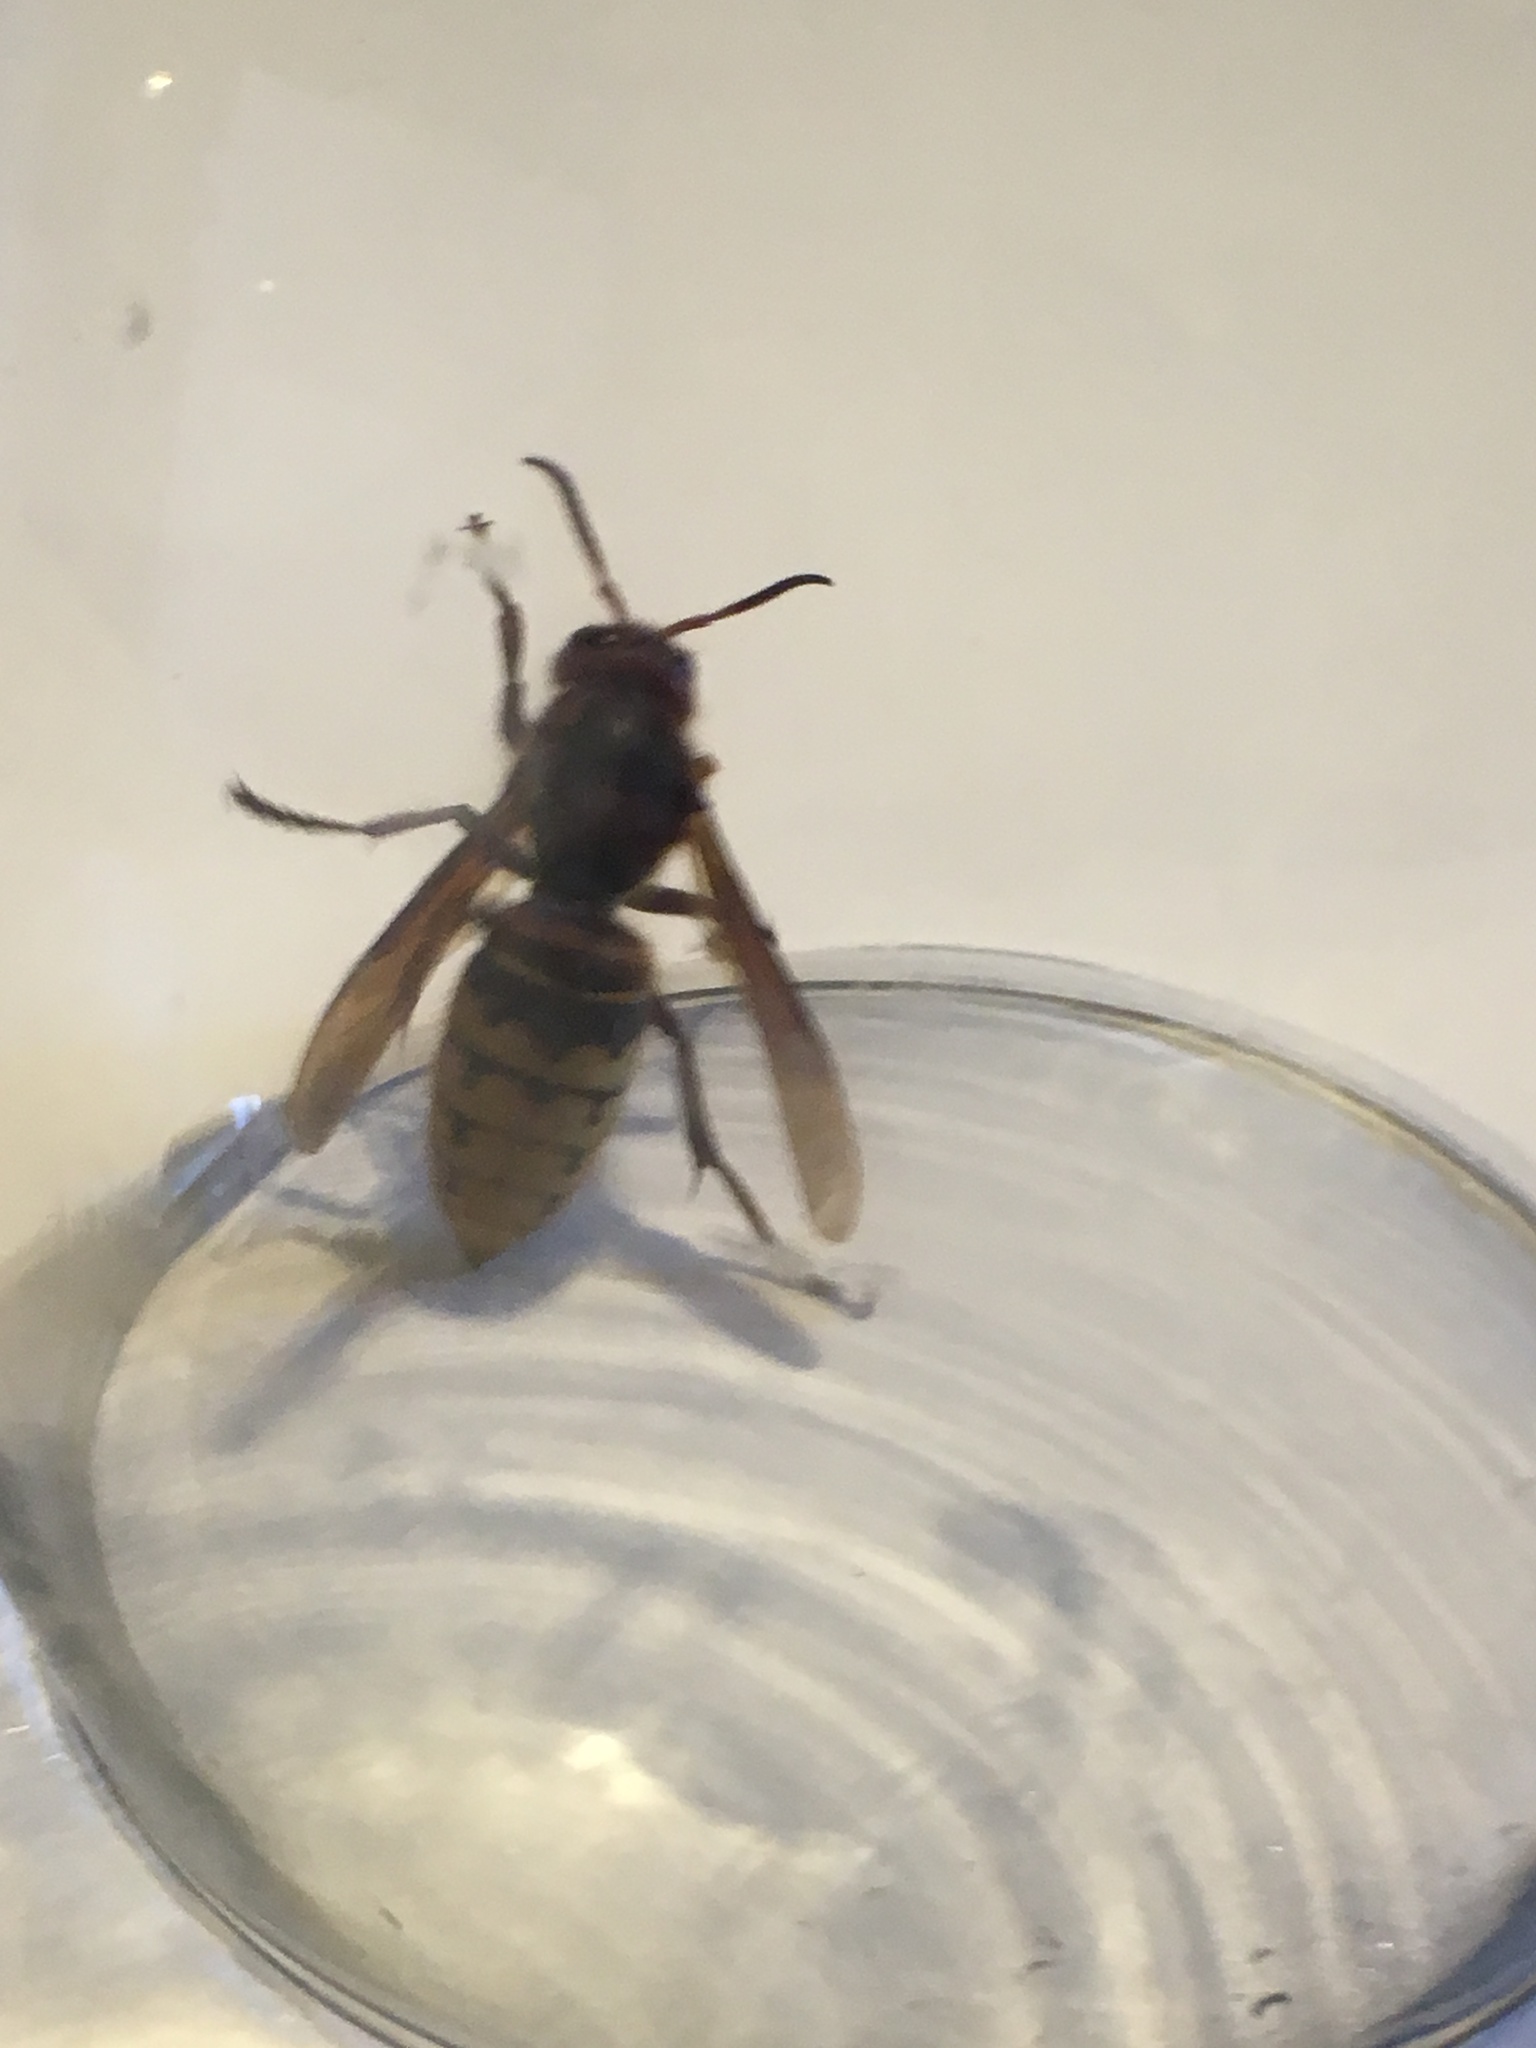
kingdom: Animalia
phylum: Arthropoda
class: Insecta
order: Hymenoptera
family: Vespidae
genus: Vespa
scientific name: Vespa crabro
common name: Hornet
